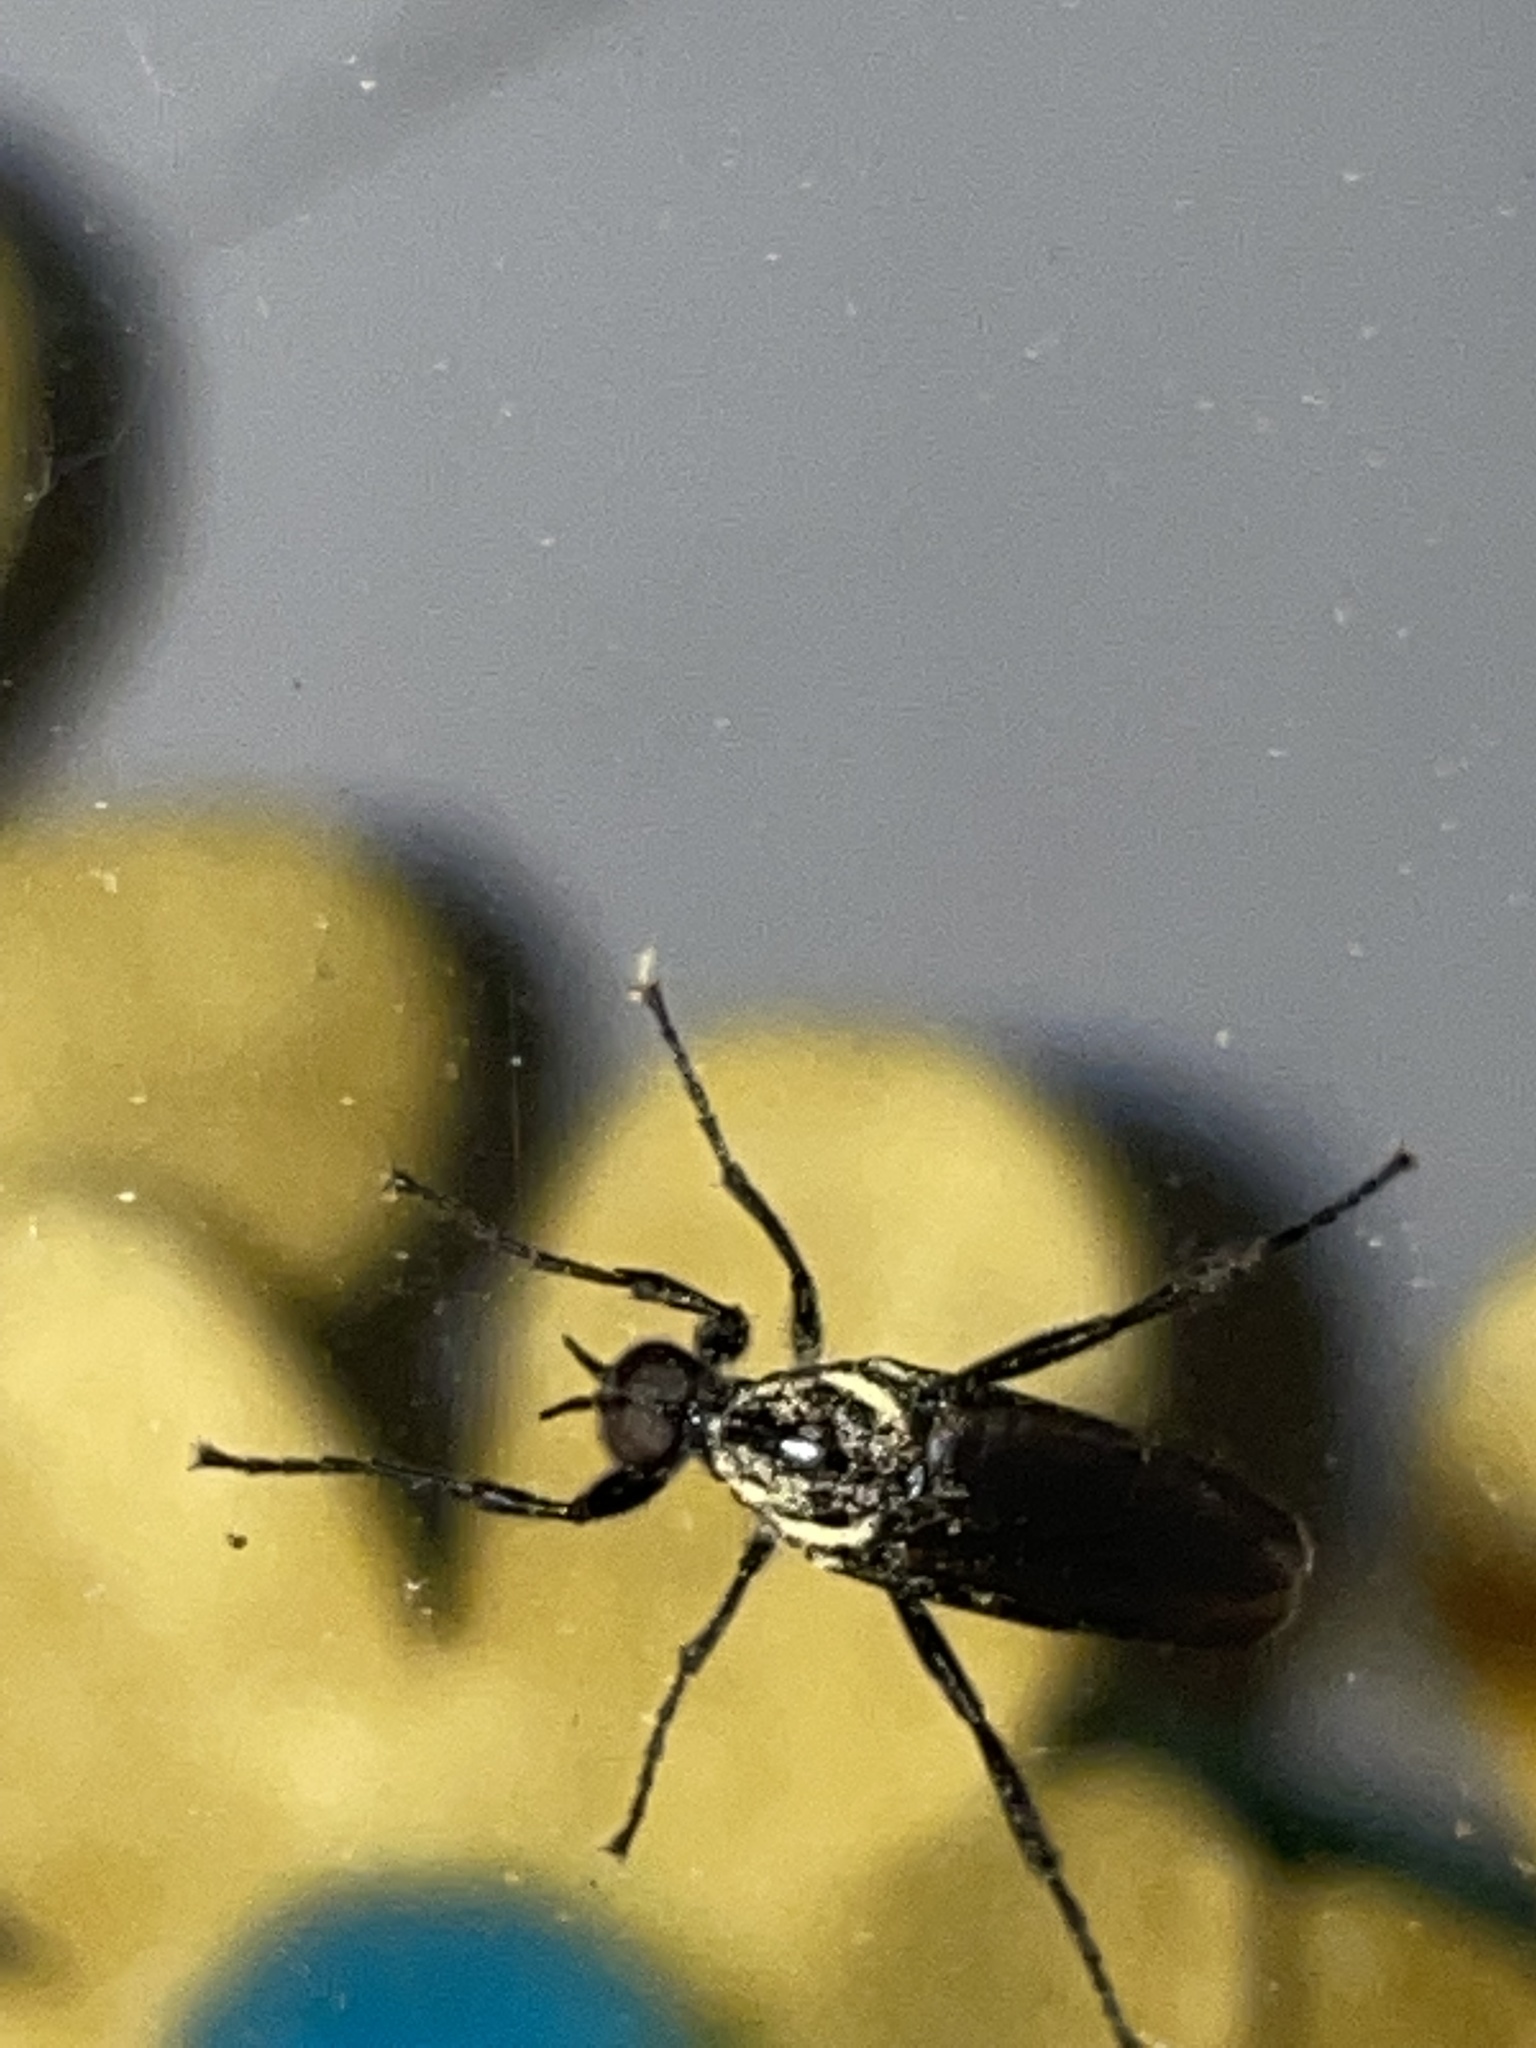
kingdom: Animalia
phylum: Arthropoda
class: Insecta
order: Diptera
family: Bibionidae
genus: Bibio
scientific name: Bibio superfluus
